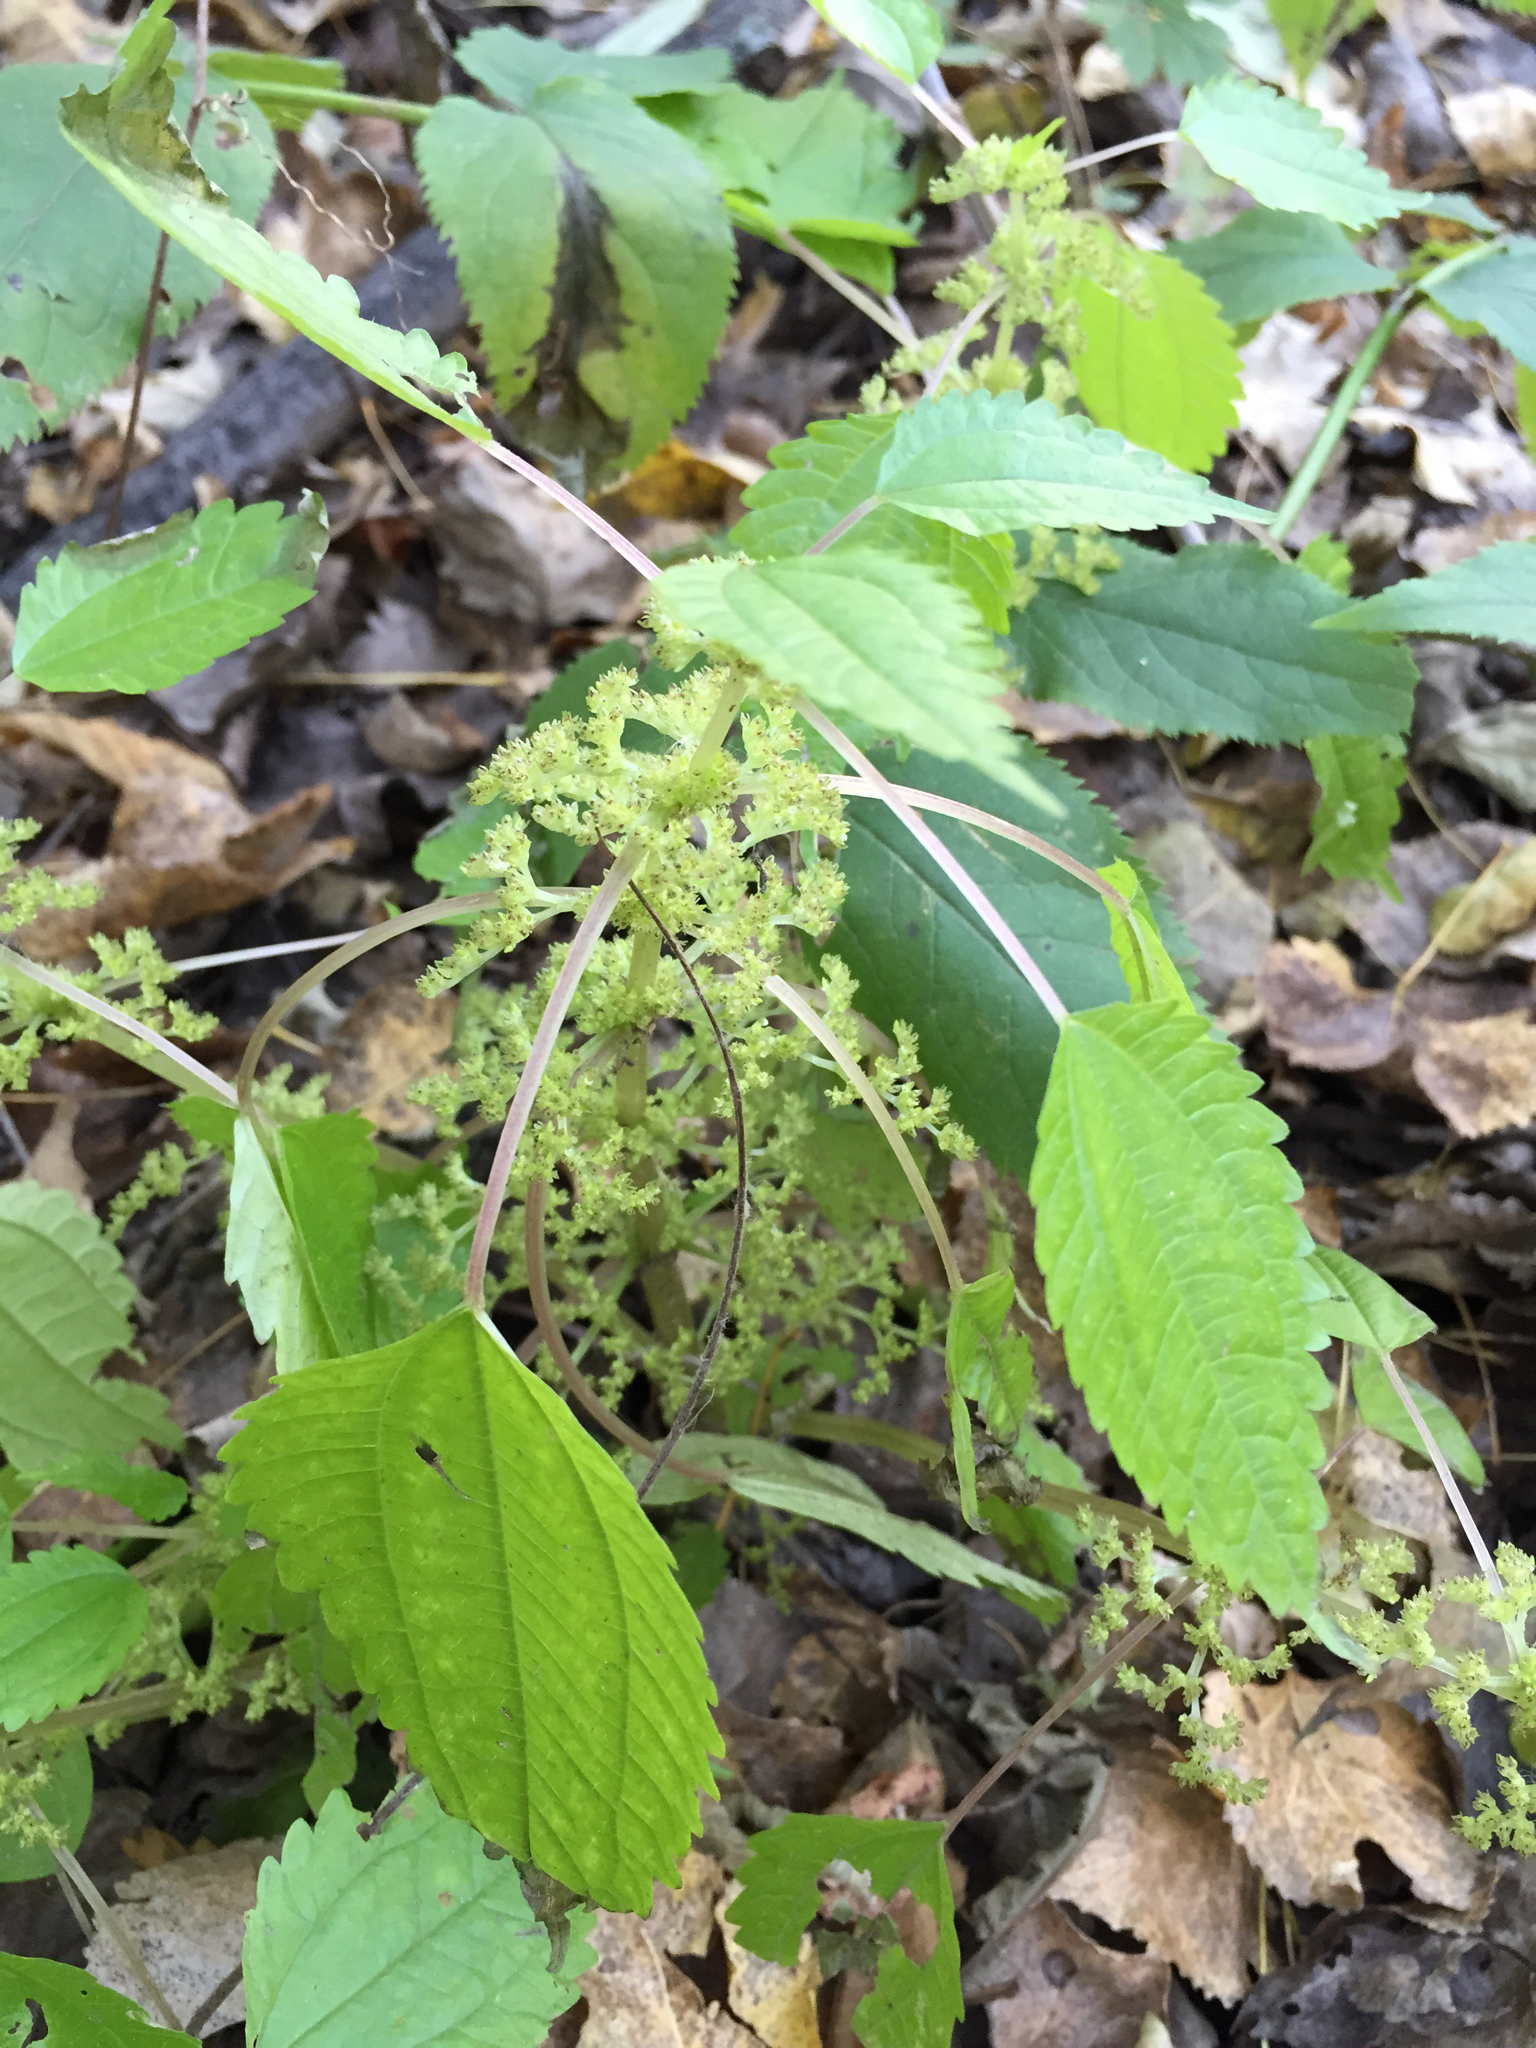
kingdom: Plantae
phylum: Tracheophyta
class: Magnoliopsida
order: Rosales
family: Urticaceae
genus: Pilea
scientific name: Pilea pumila
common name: Clearweed
